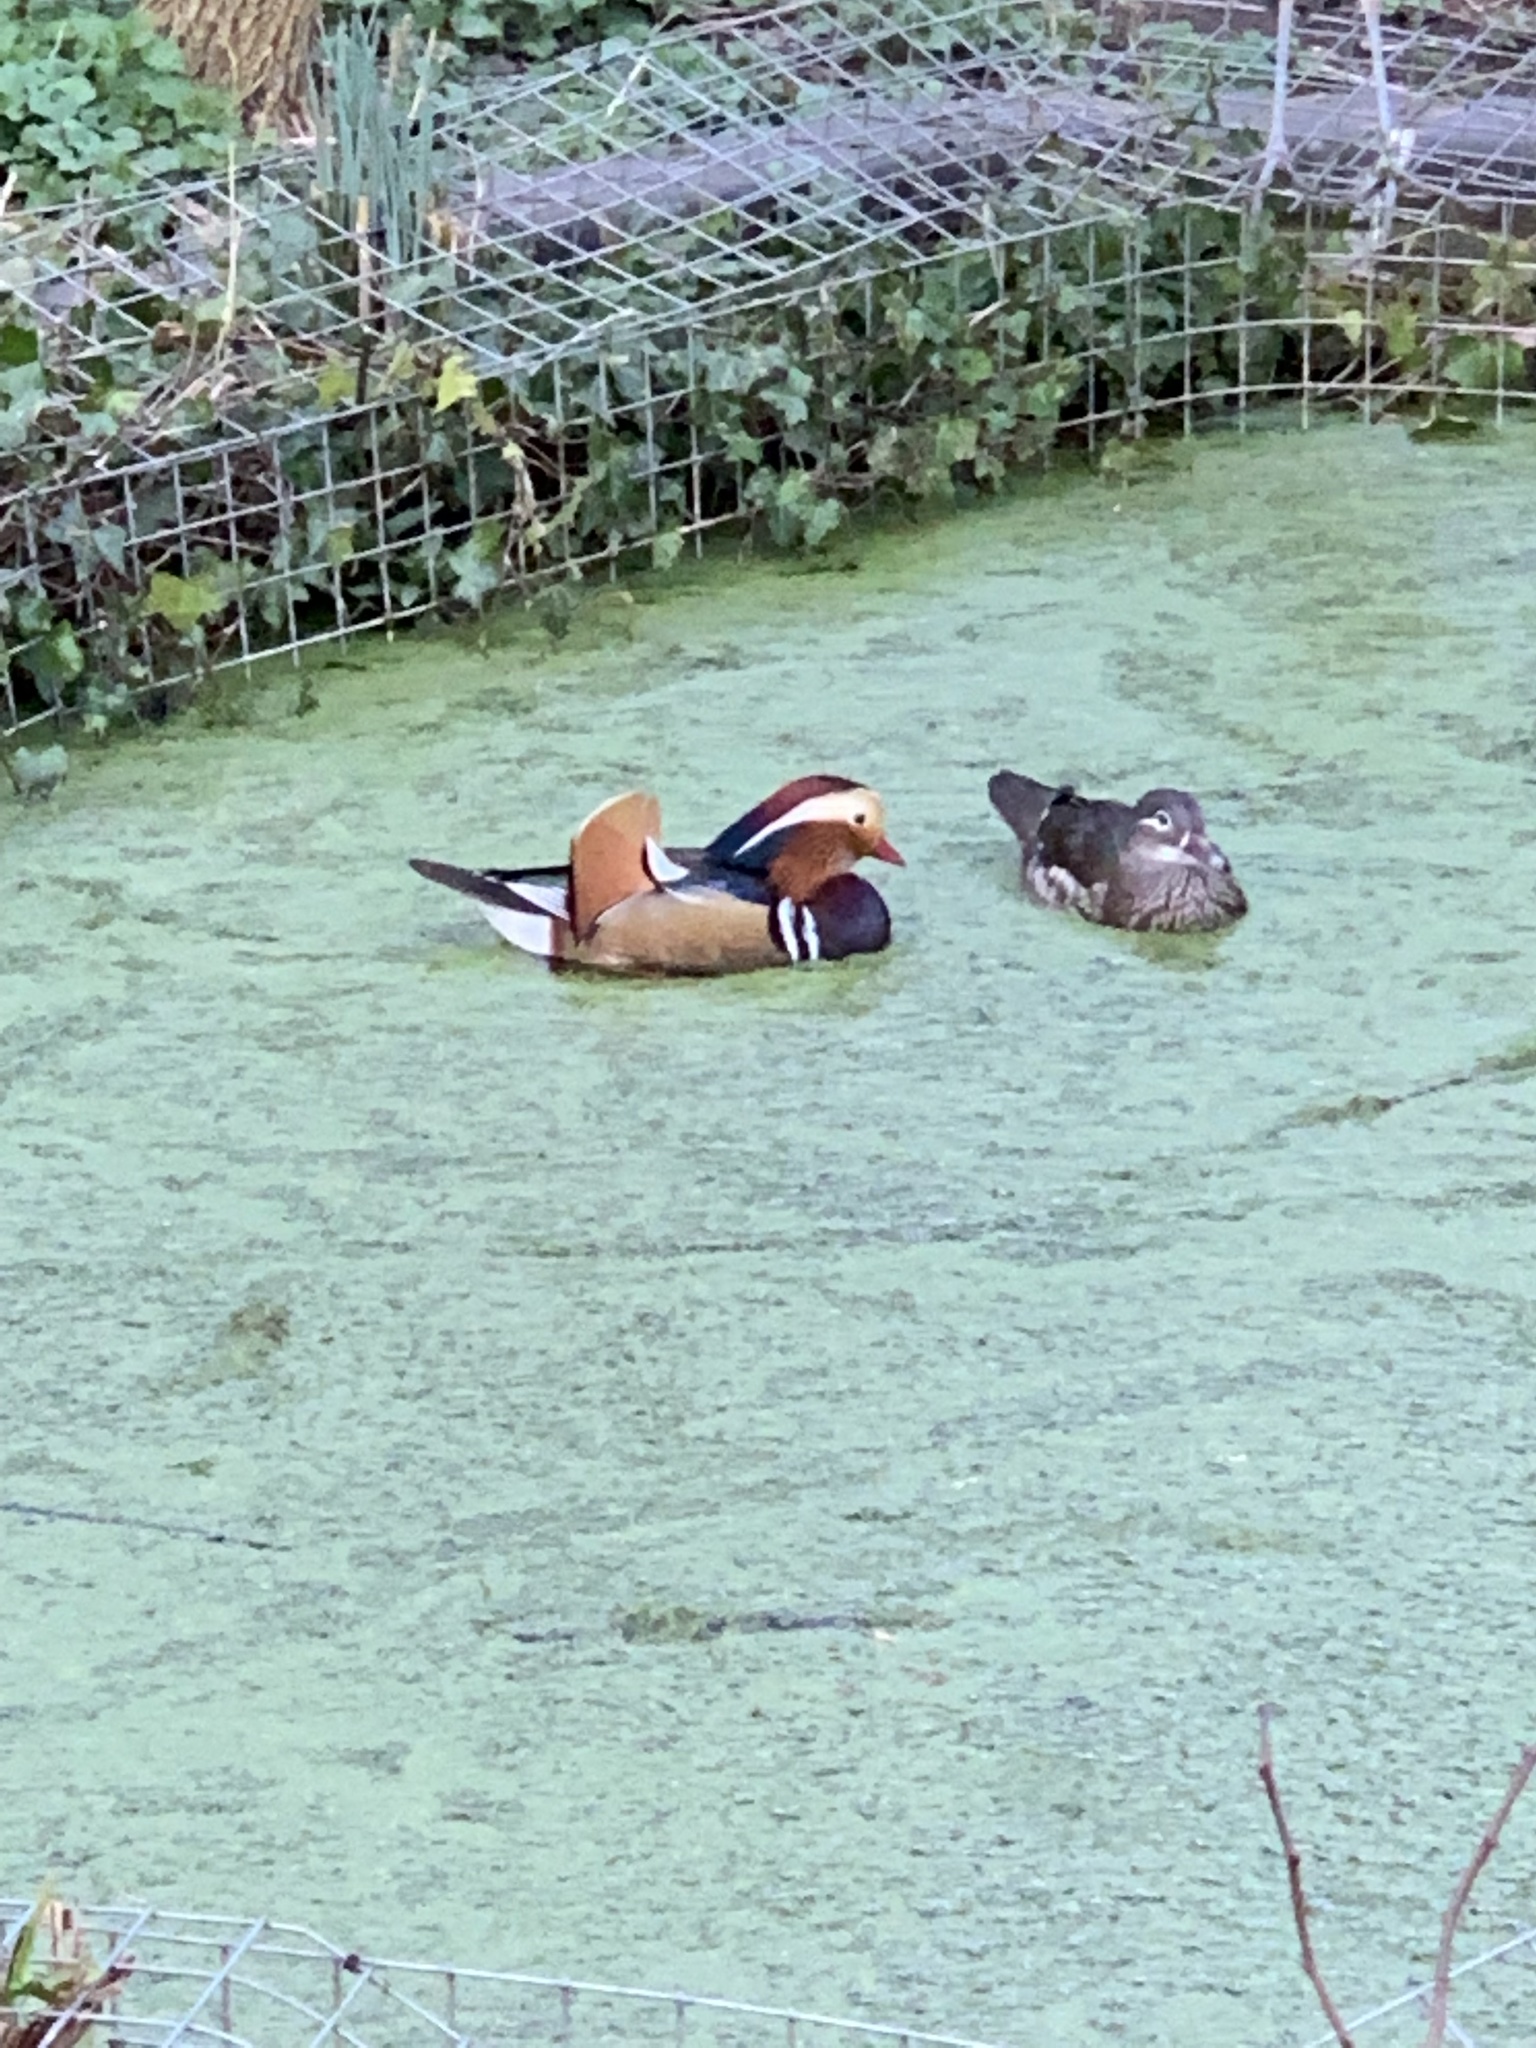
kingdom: Animalia
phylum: Chordata
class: Aves
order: Anseriformes
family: Anatidae
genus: Aix
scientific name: Aix galericulata
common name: Mandarin duck
